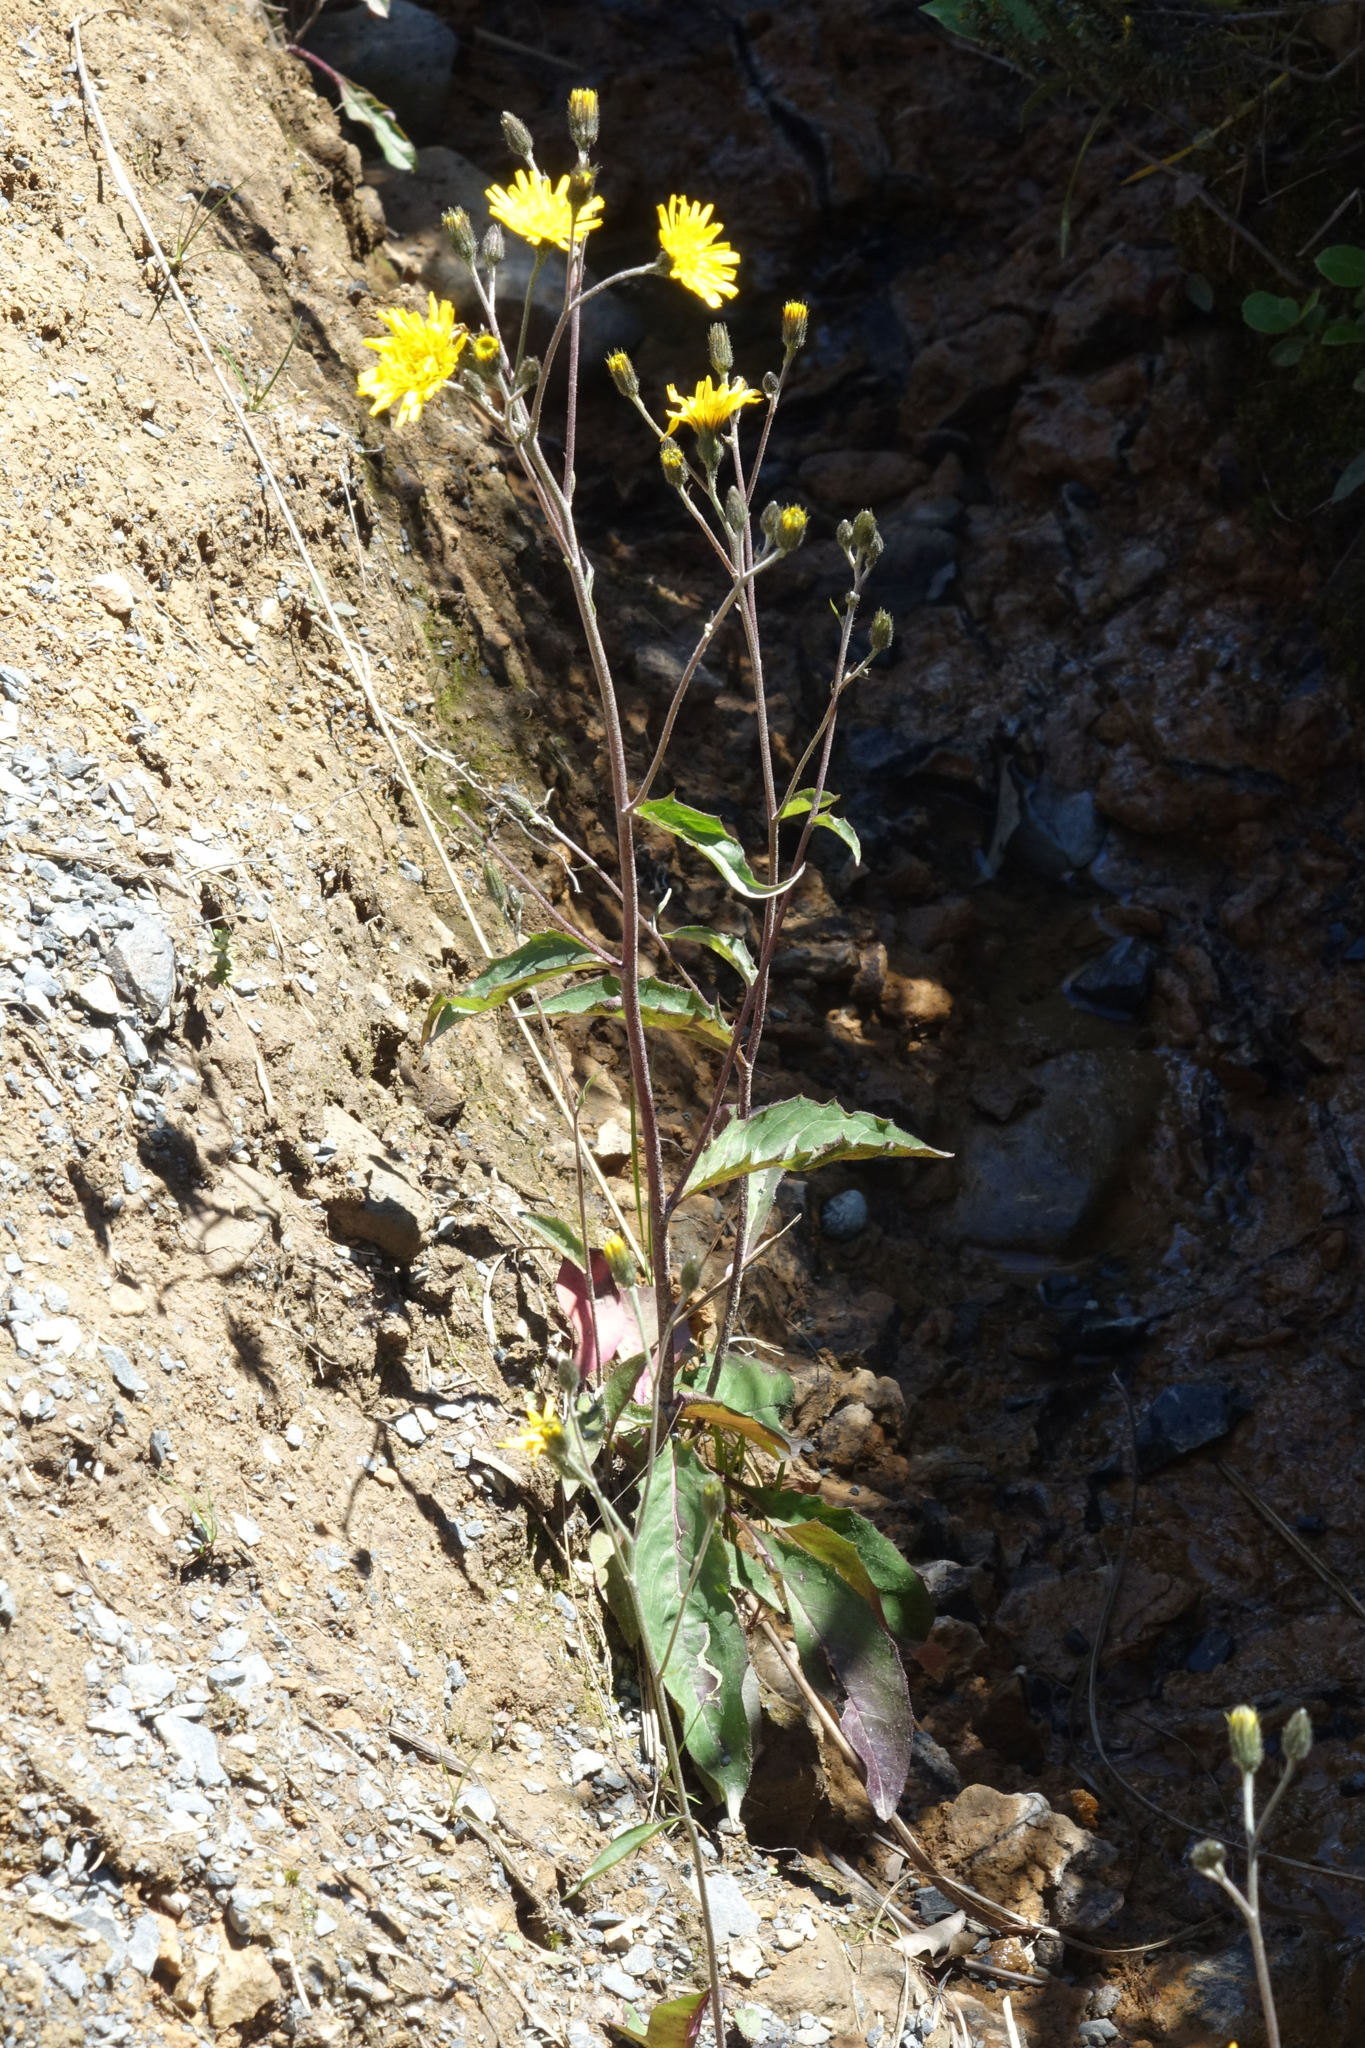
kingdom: Plantae
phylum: Tracheophyta
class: Magnoliopsida
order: Asterales
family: Asteraceae
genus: Hieracium
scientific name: Hieracium lepidulum
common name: Irregular-toothed hawkweed
